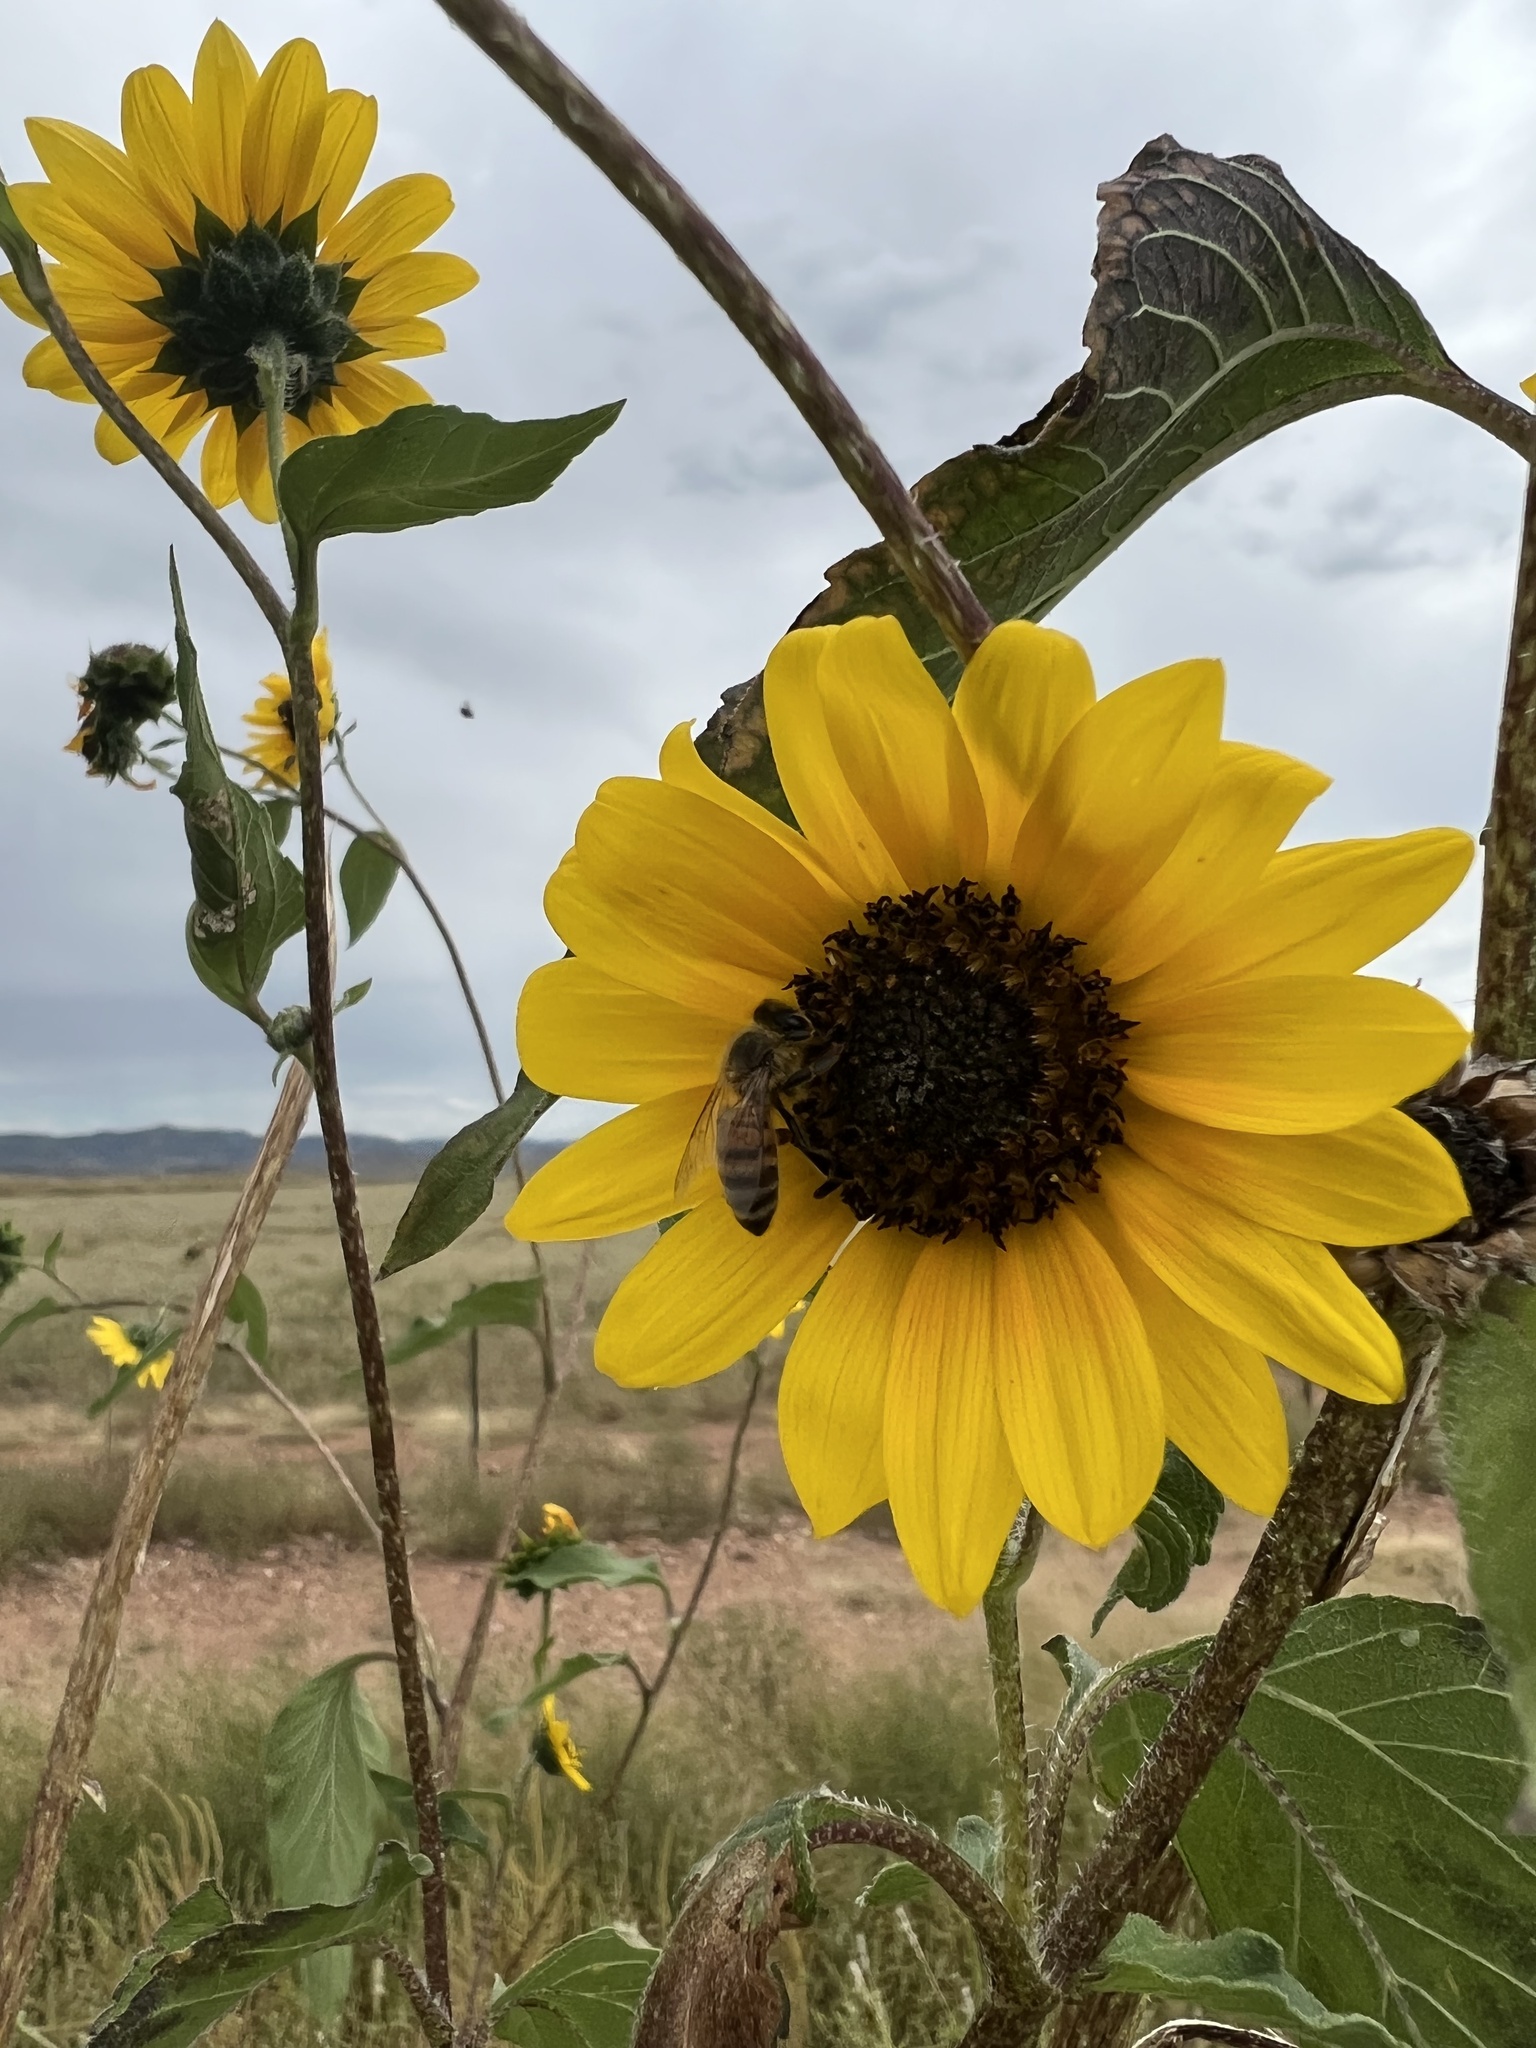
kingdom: Animalia
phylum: Arthropoda
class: Insecta
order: Hymenoptera
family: Apidae
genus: Apis
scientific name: Apis mellifera
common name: Honey bee
